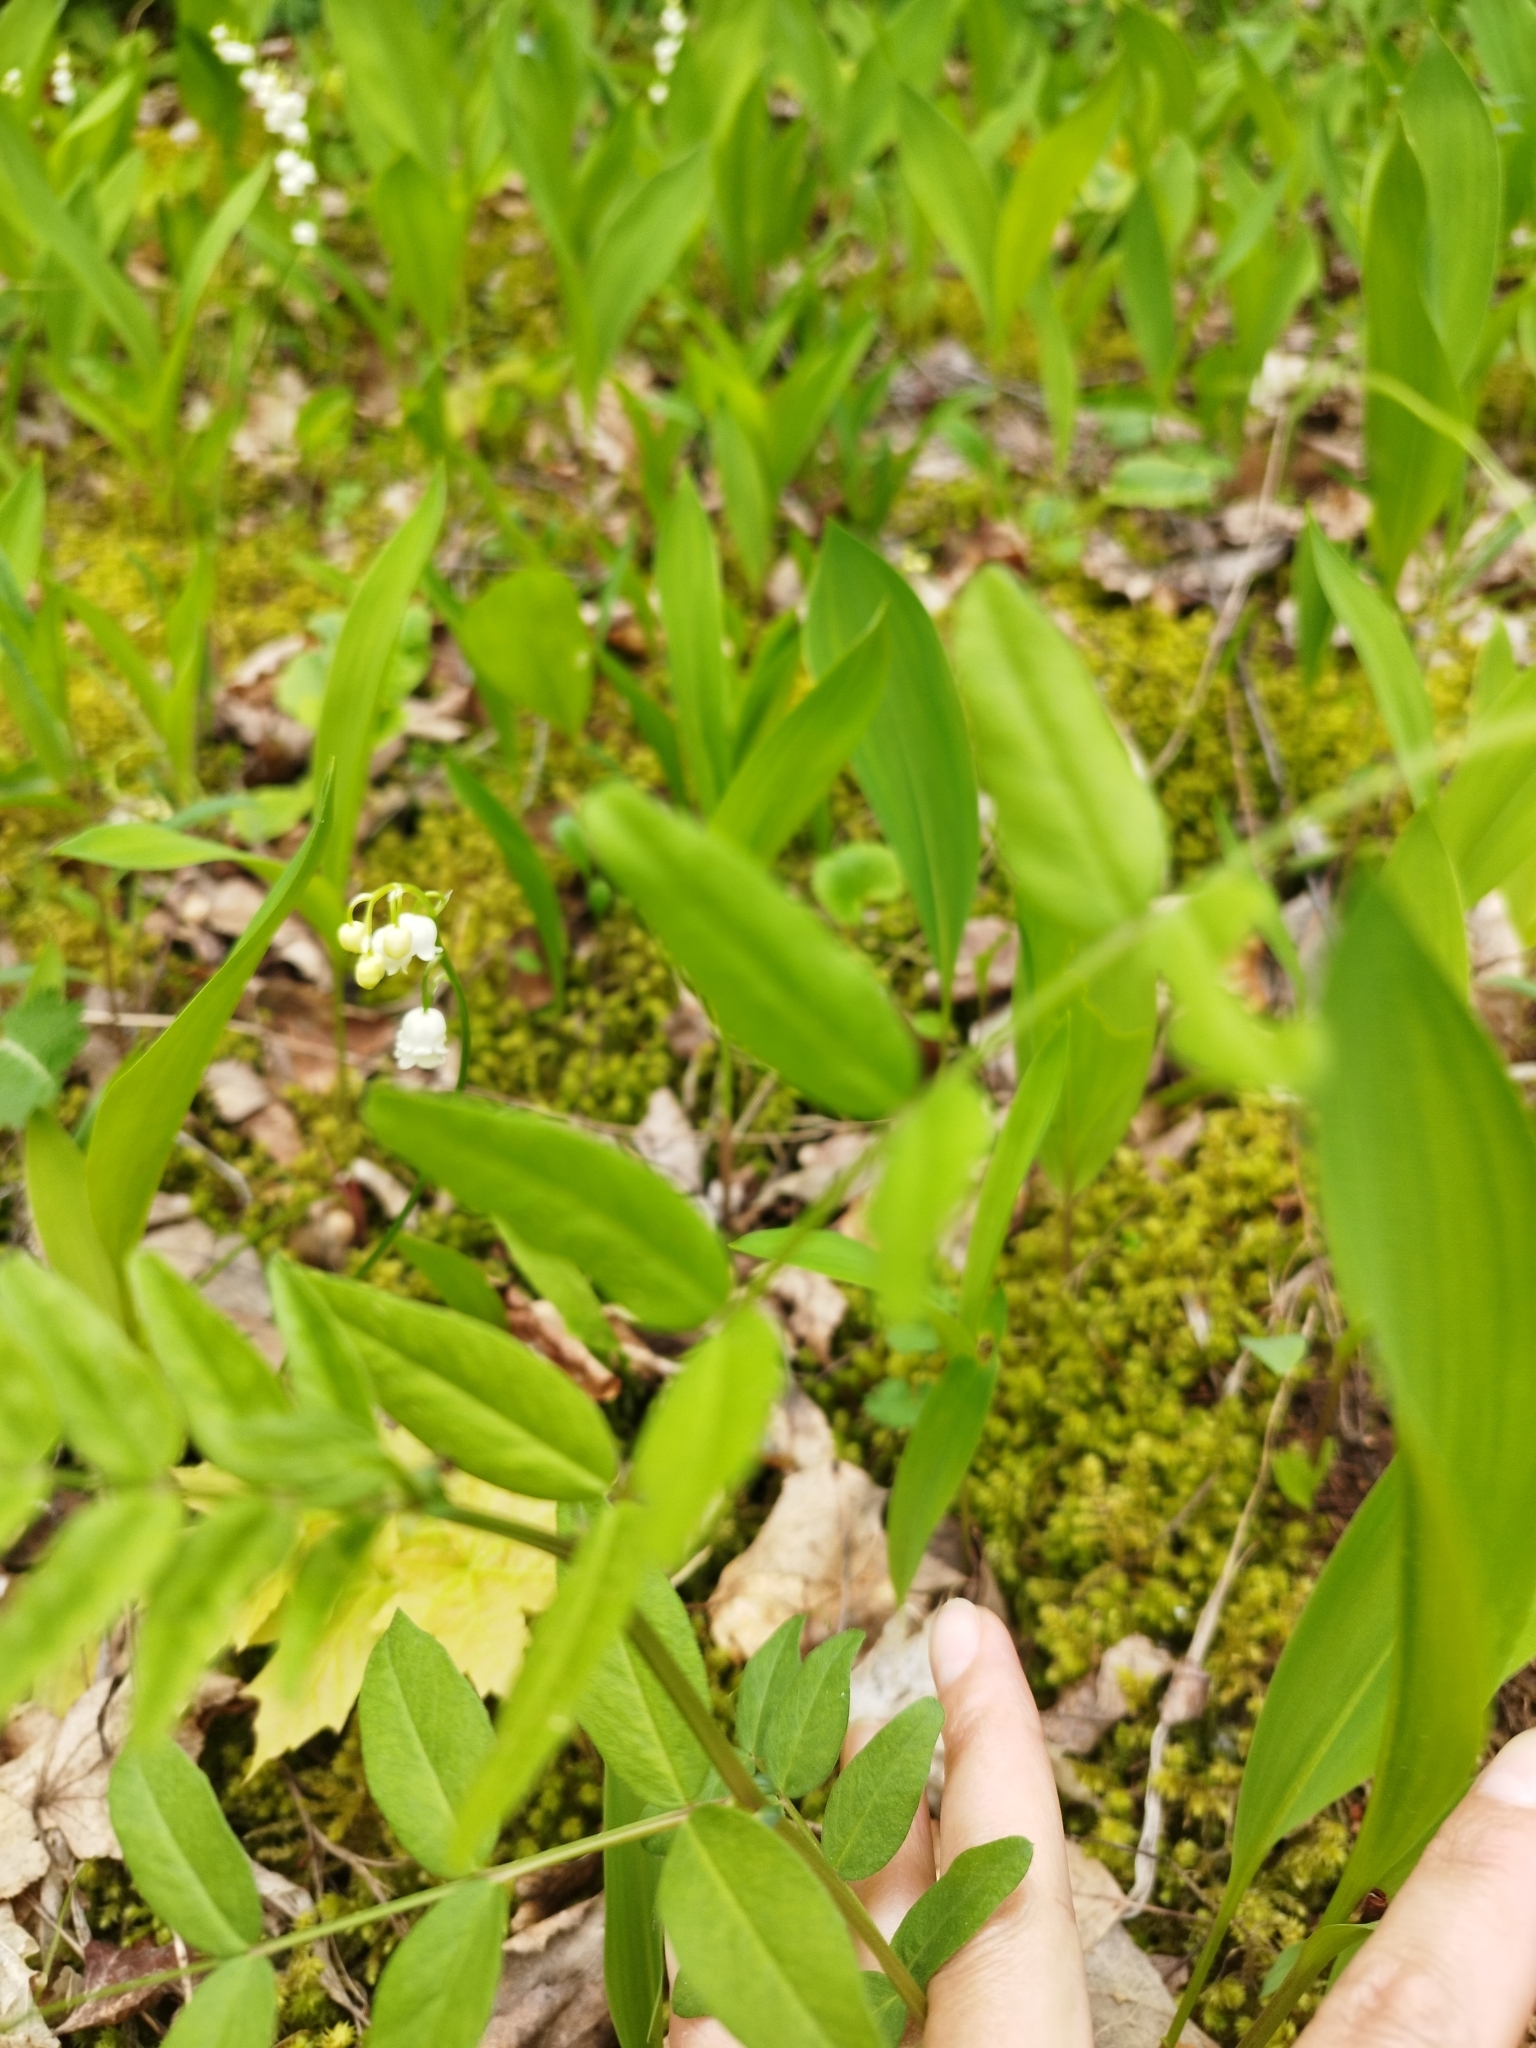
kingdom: Plantae
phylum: Tracheophyta
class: Magnoliopsida
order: Fabales
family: Fabaceae
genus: Vicia
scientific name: Vicia sepium
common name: Bush vetch
